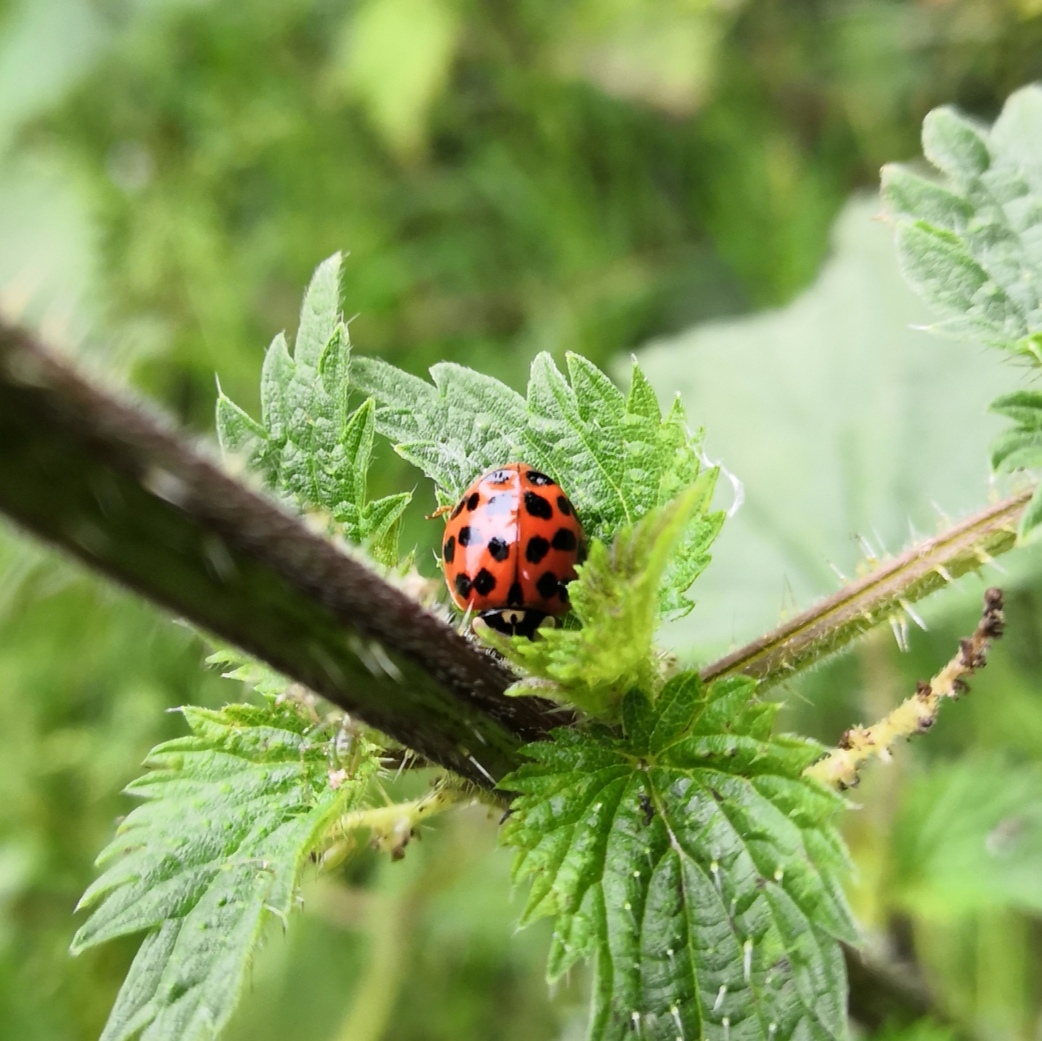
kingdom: Animalia
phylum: Arthropoda
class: Insecta
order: Coleoptera
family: Coccinellidae
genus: Harmonia
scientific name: Harmonia axyridis
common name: Harlequin ladybird
